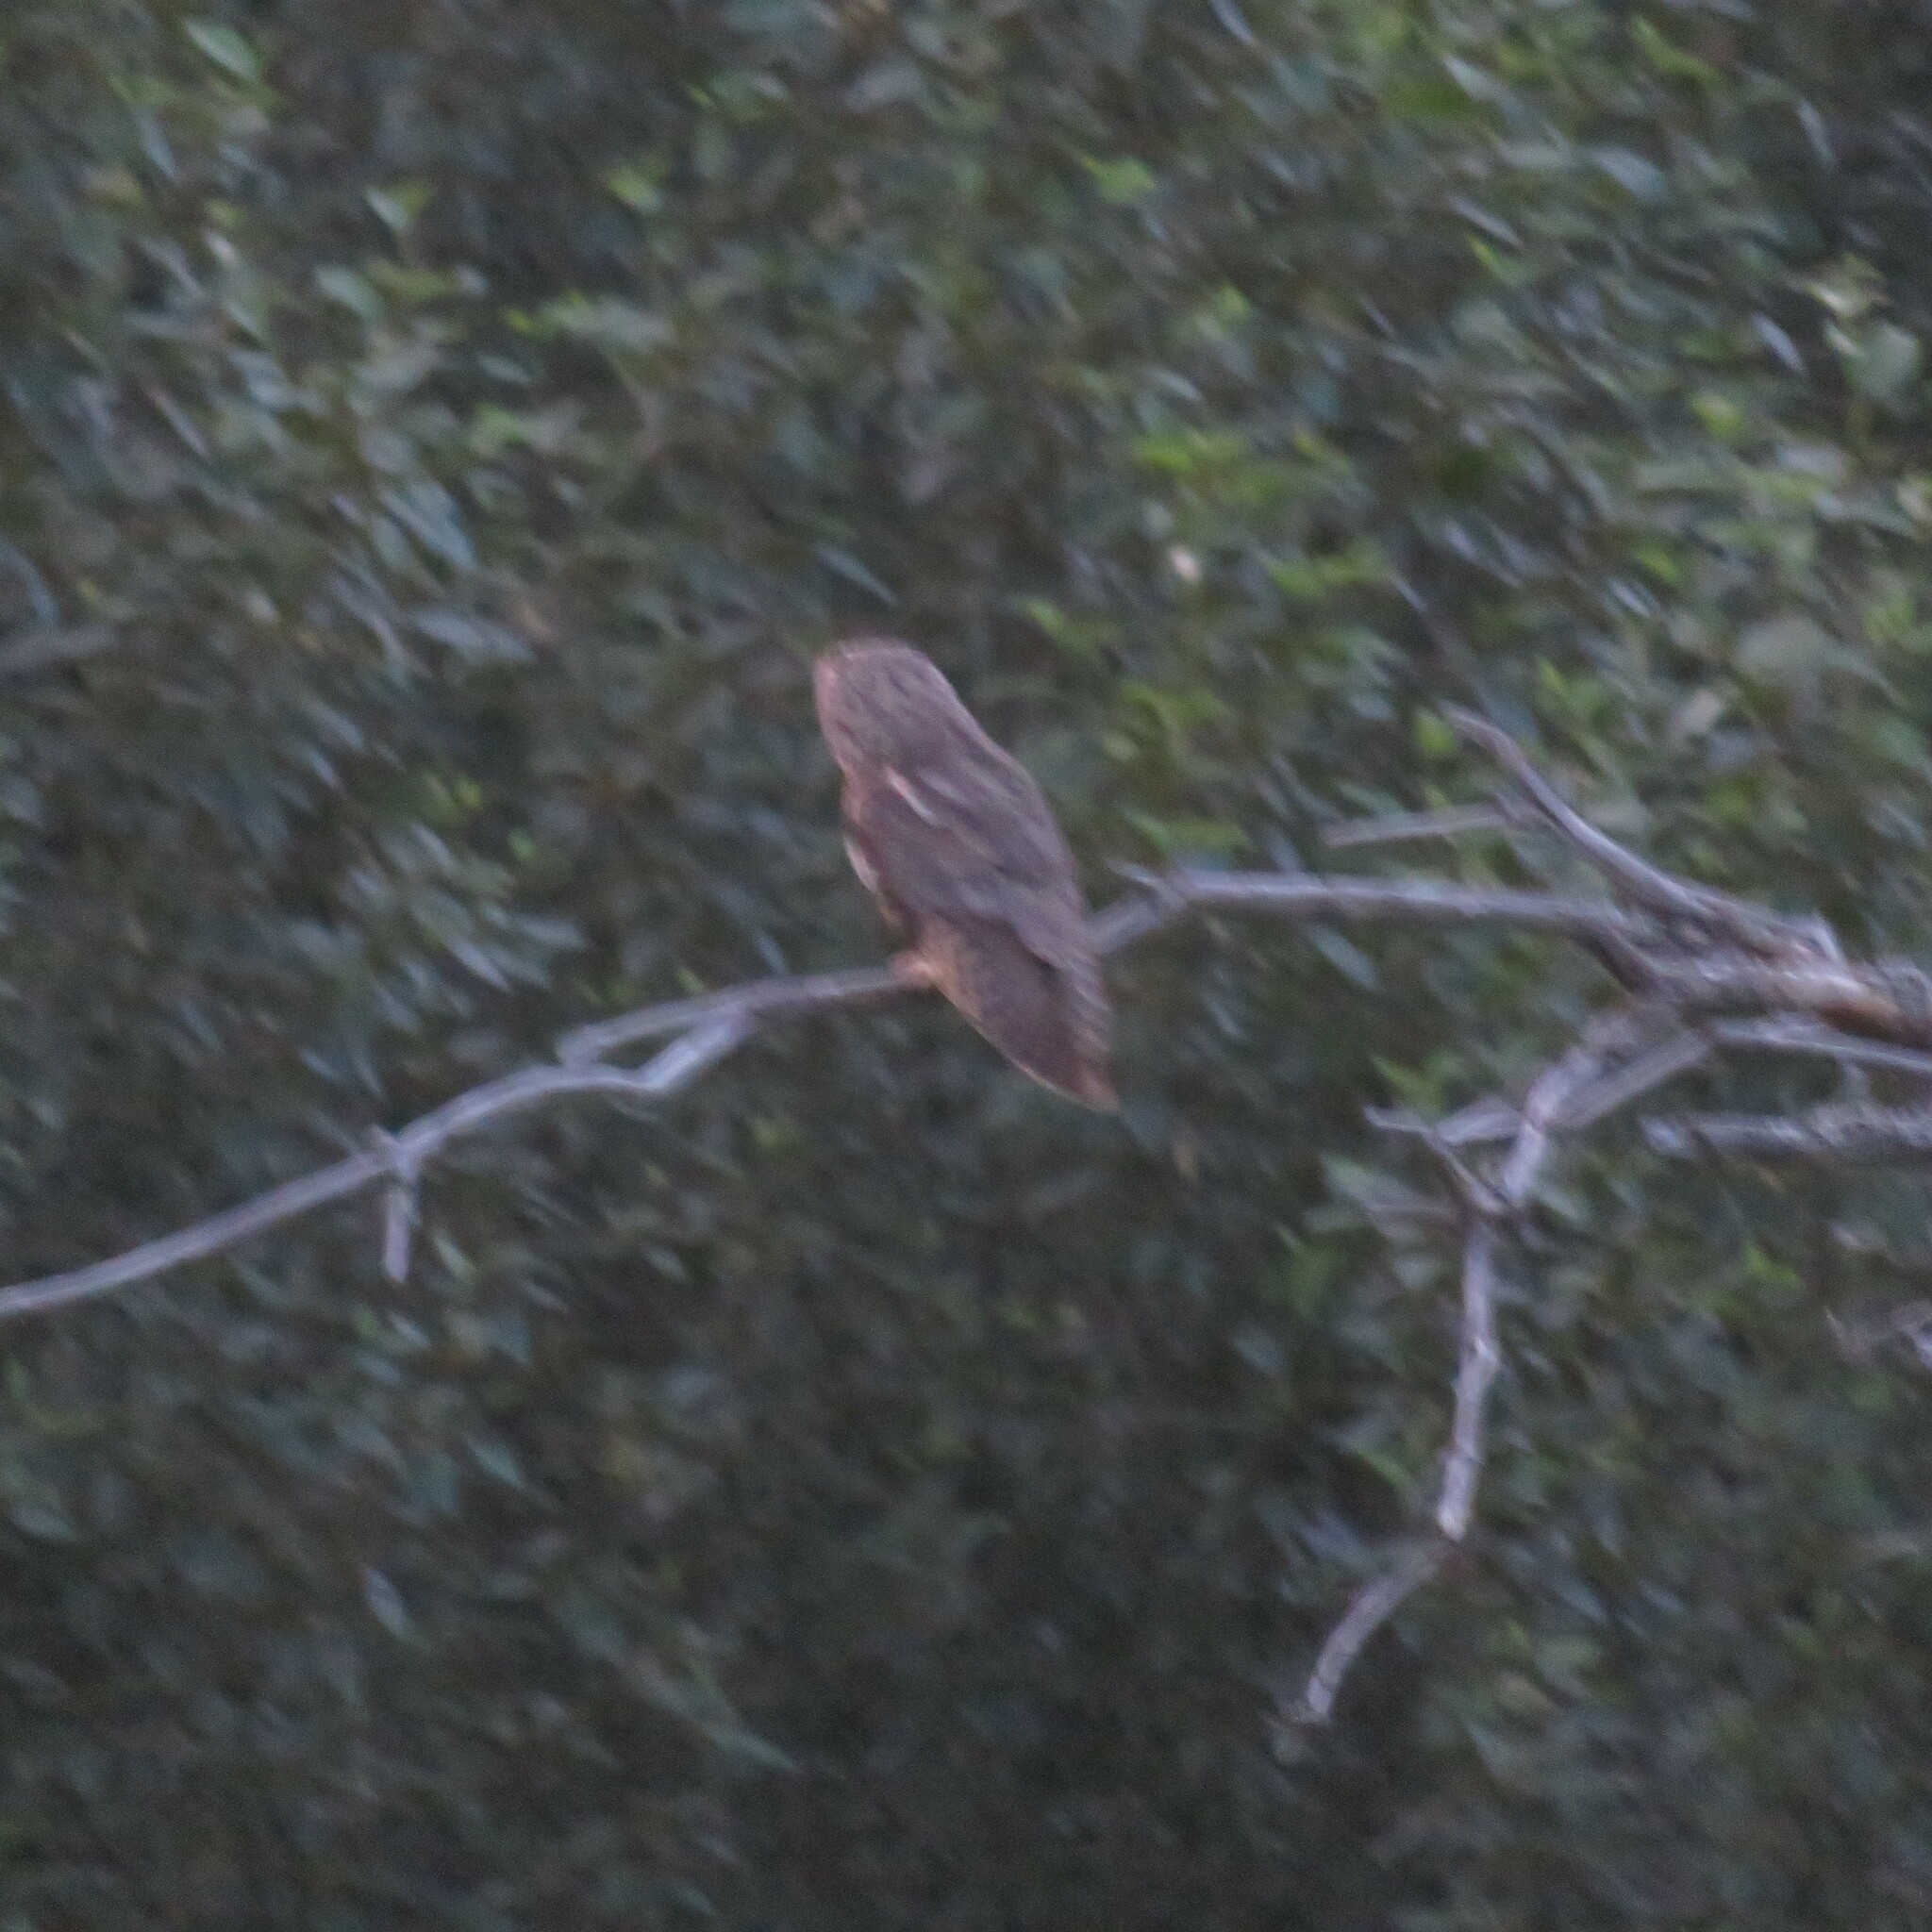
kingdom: Animalia
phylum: Chordata
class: Aves
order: Strigiformes
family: Strigidae
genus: Asio
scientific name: Asio otus
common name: Long-eared owl
